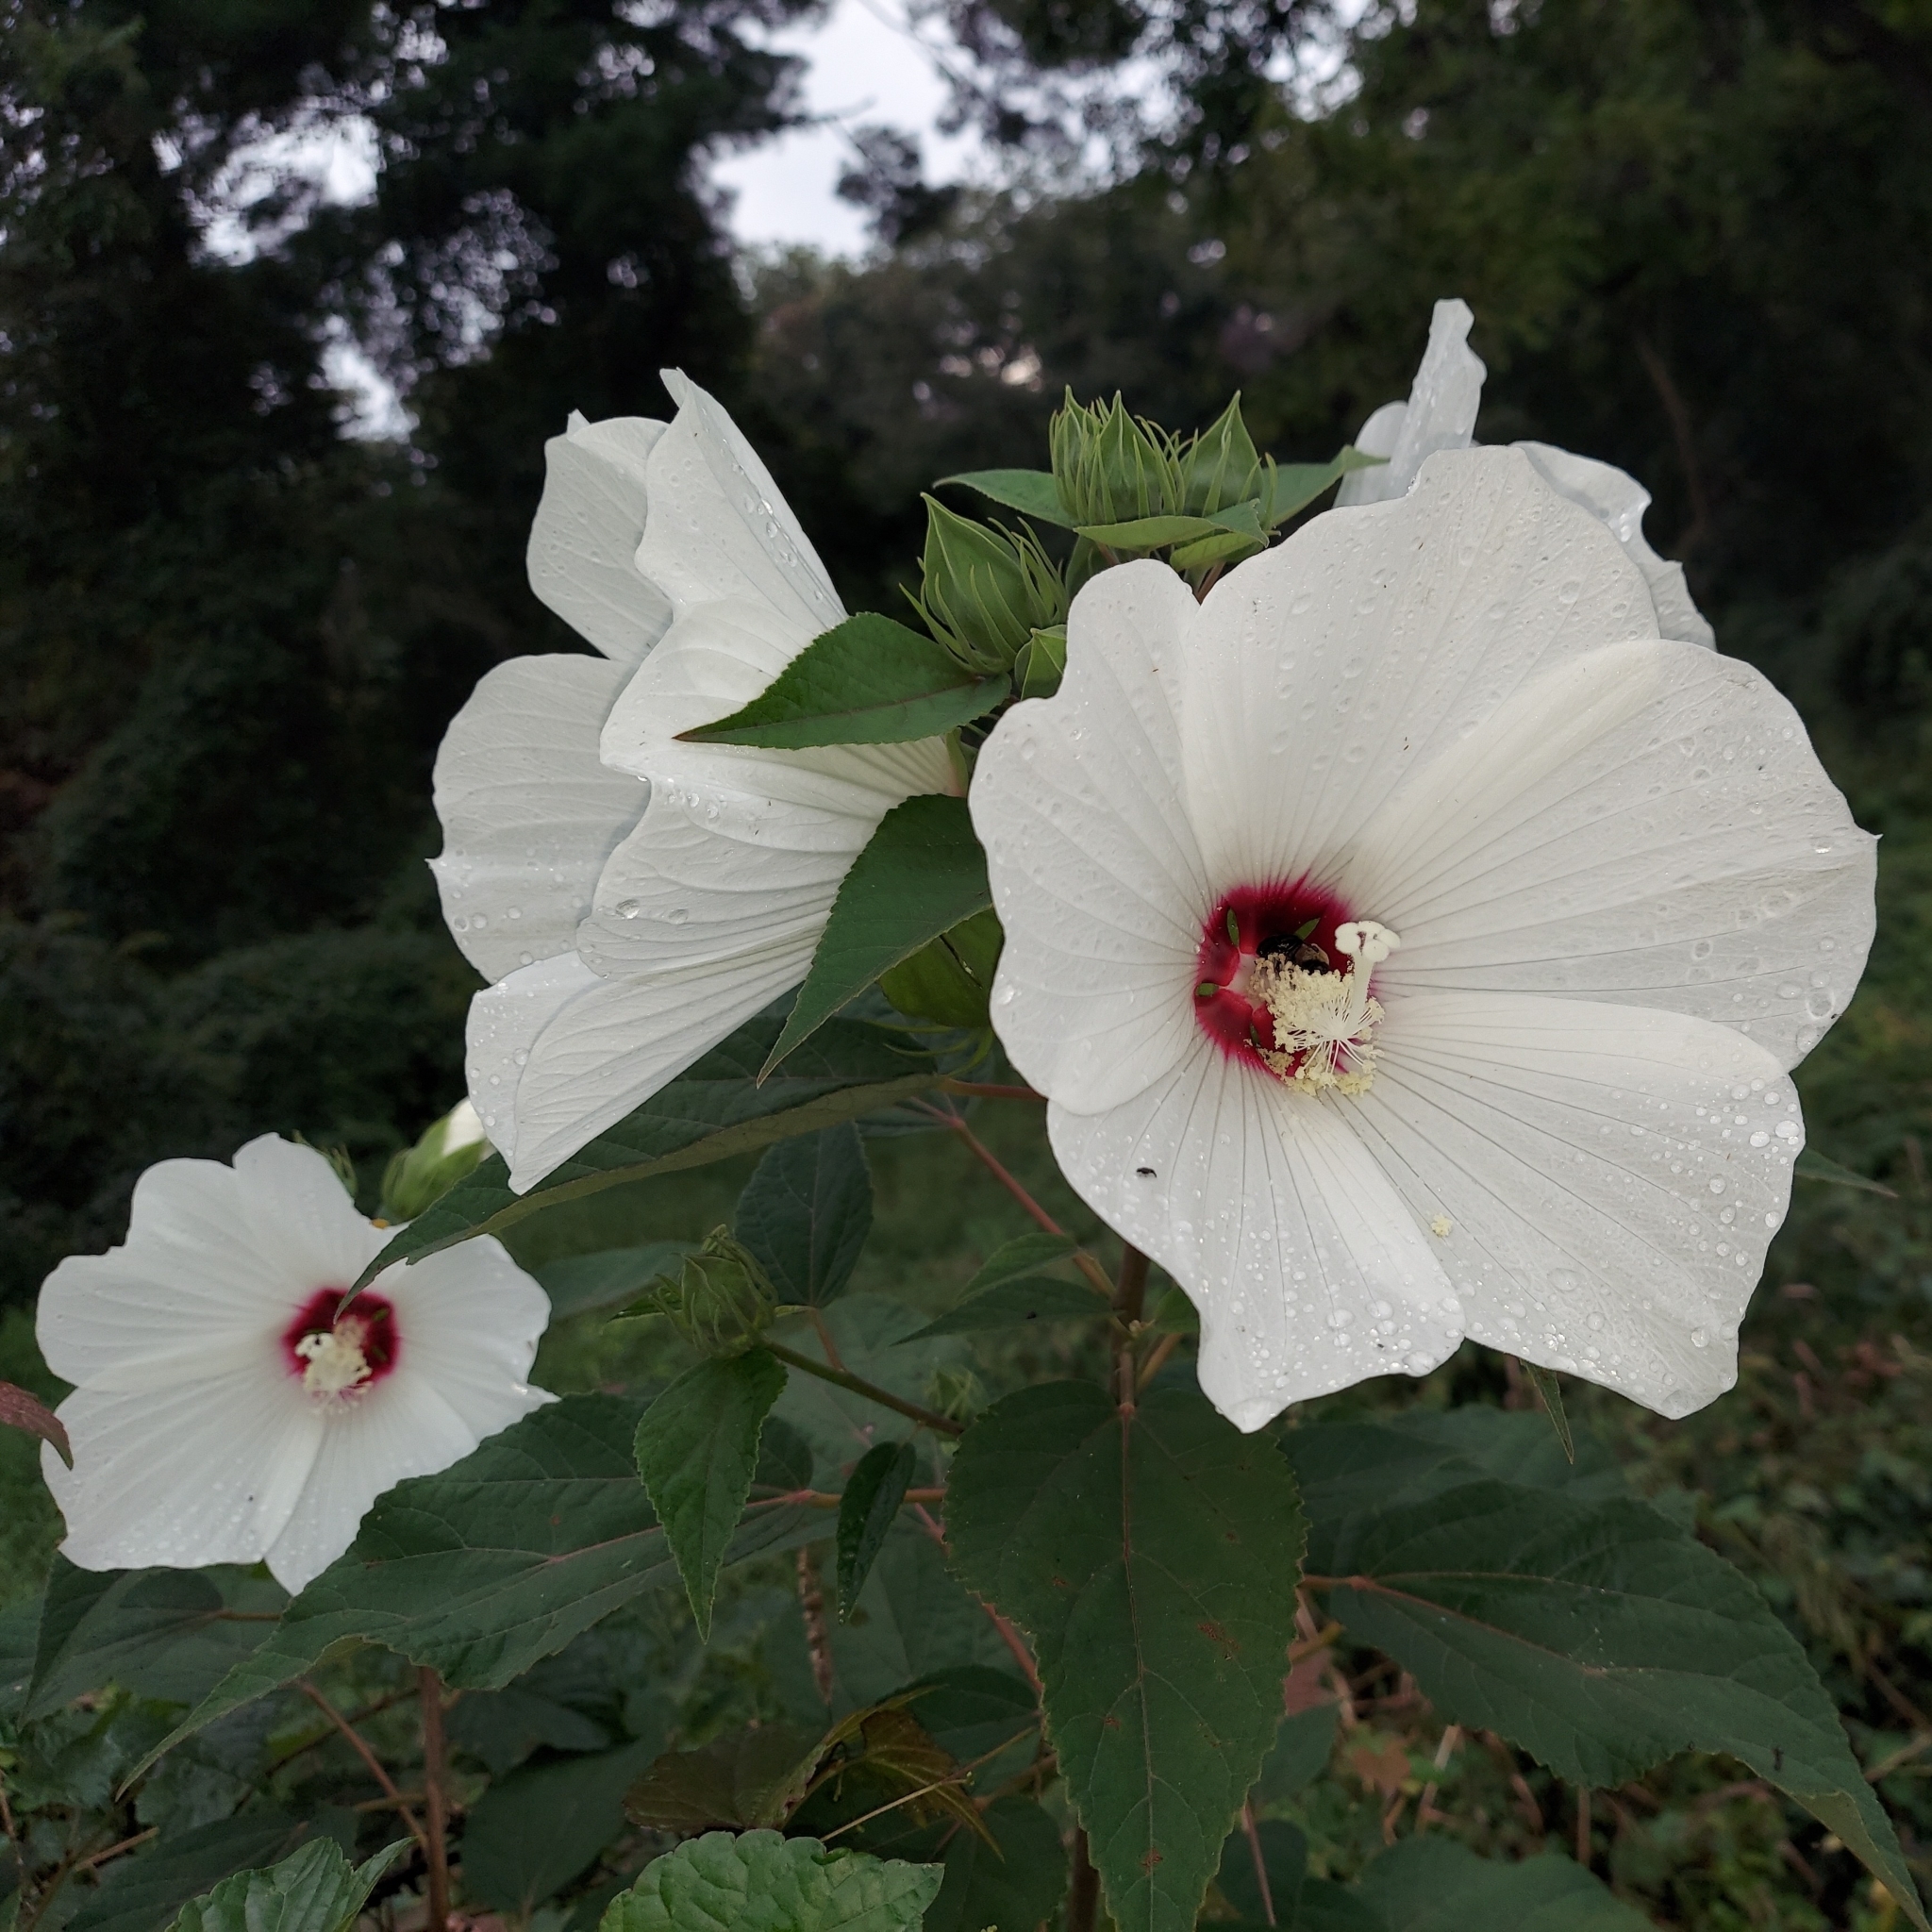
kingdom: Plantae
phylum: Tracheophyta
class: Magnoliopsida
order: Malvales
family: Malvaceae
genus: Hibiscus
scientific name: Hibiscus moscheutos
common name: Common rose-mallow
